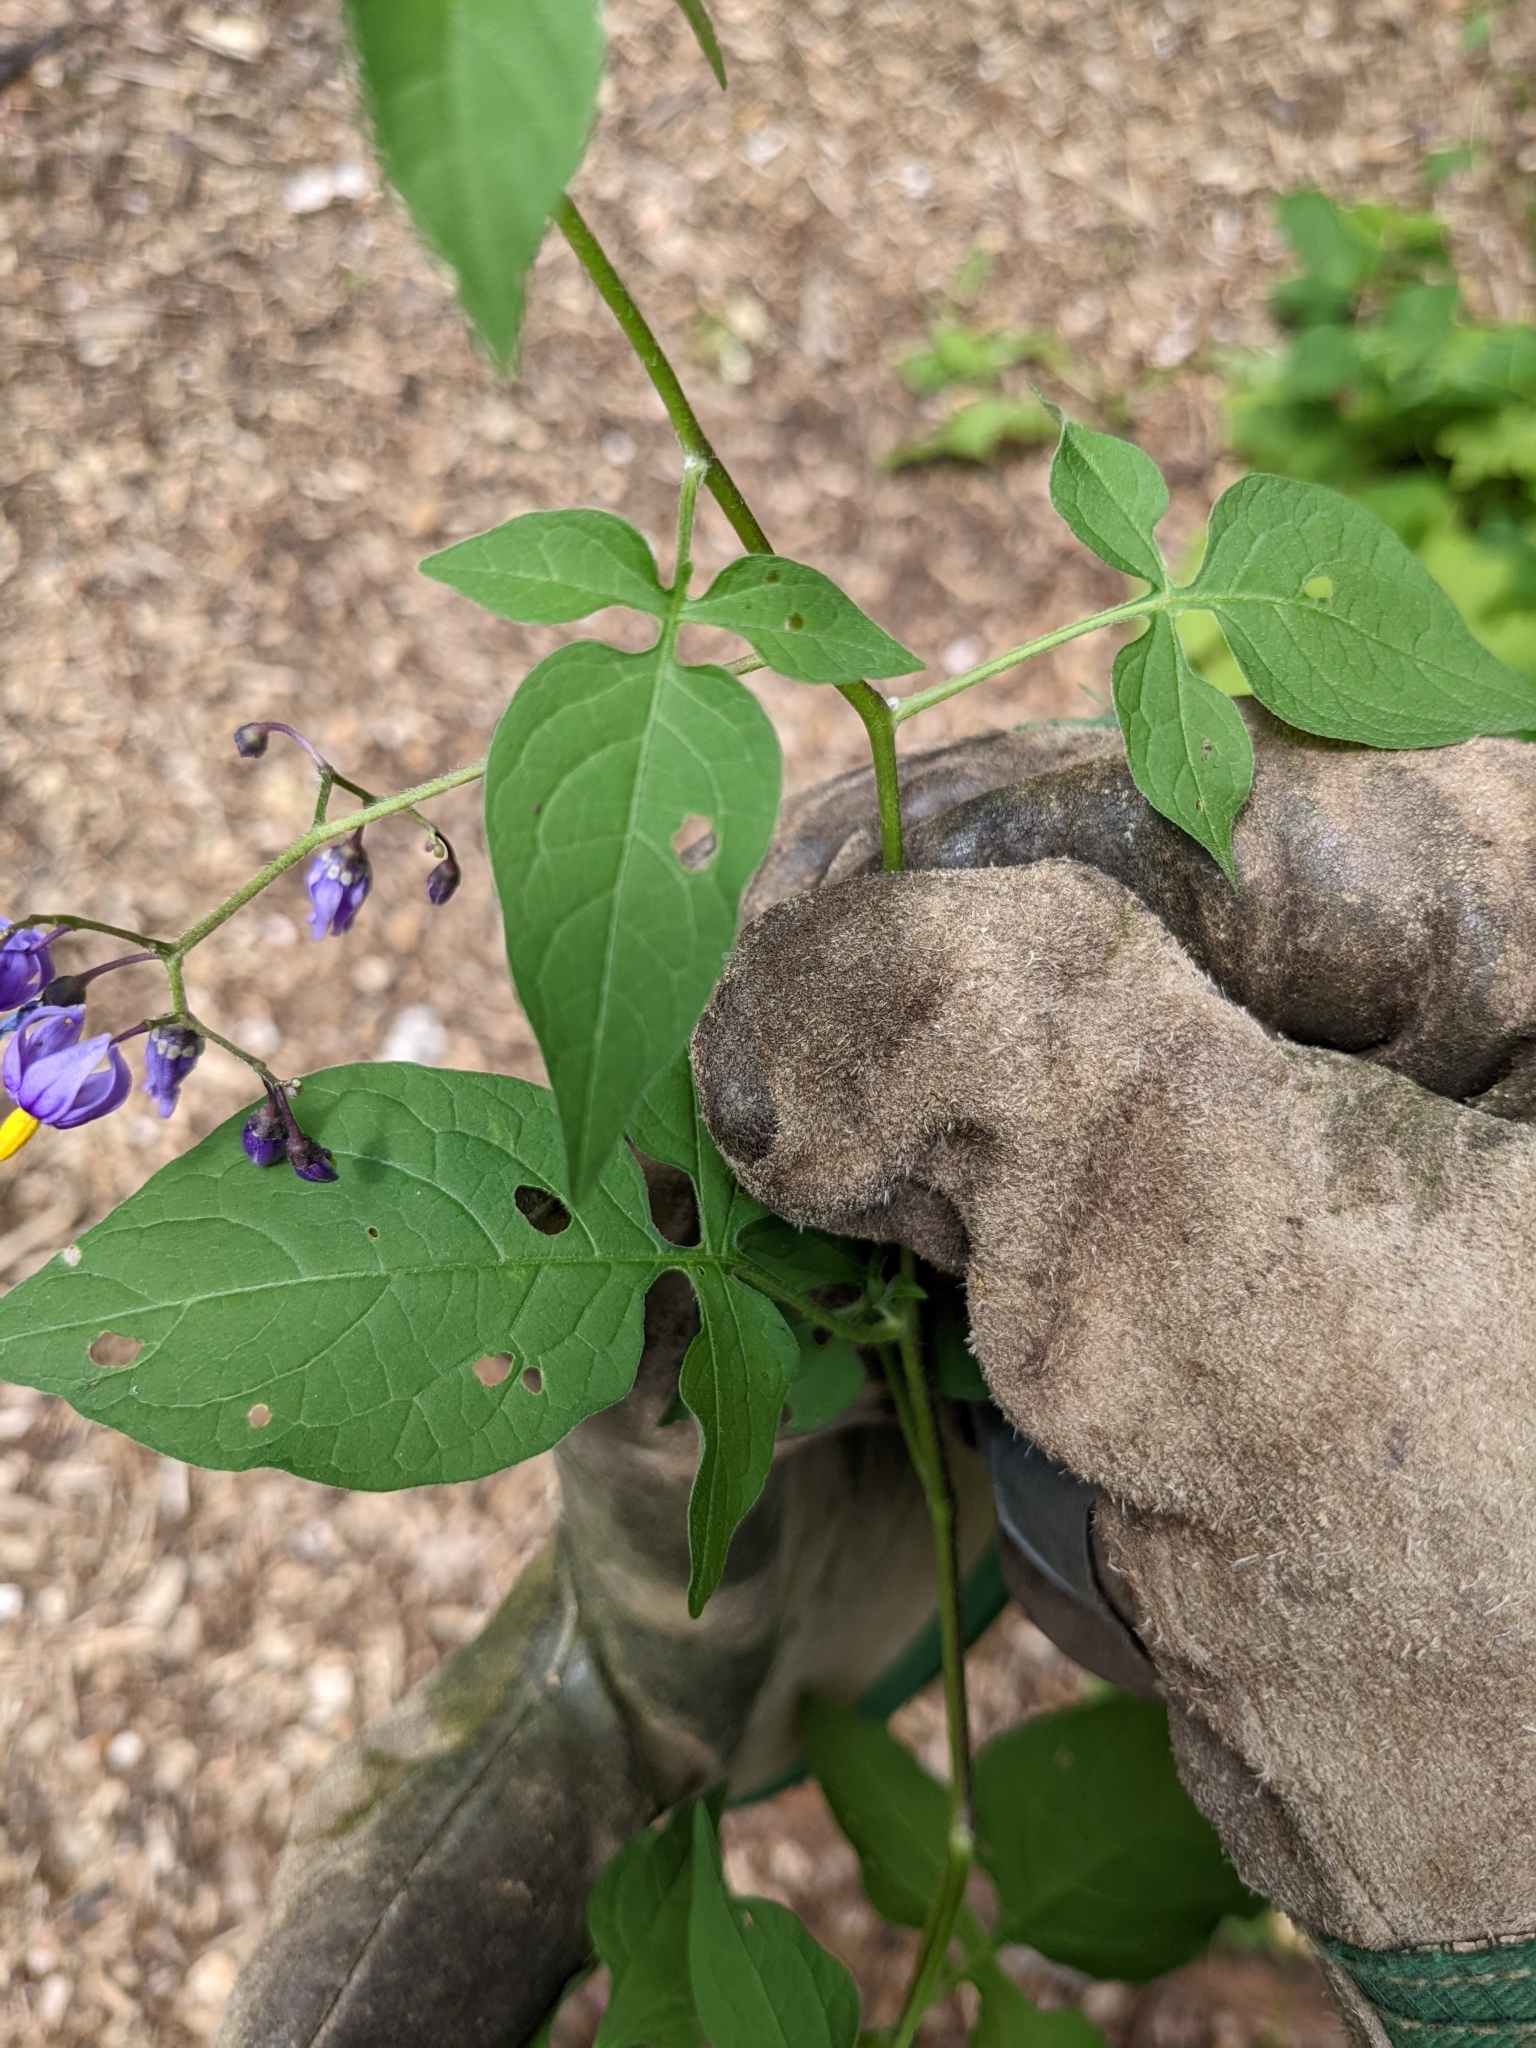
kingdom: Plantae
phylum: Tracheophyta
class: Magnoliopsida
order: Solanales
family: Solanaceae
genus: Solanum
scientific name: Solanum dulcamara
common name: Climbing nightshade
